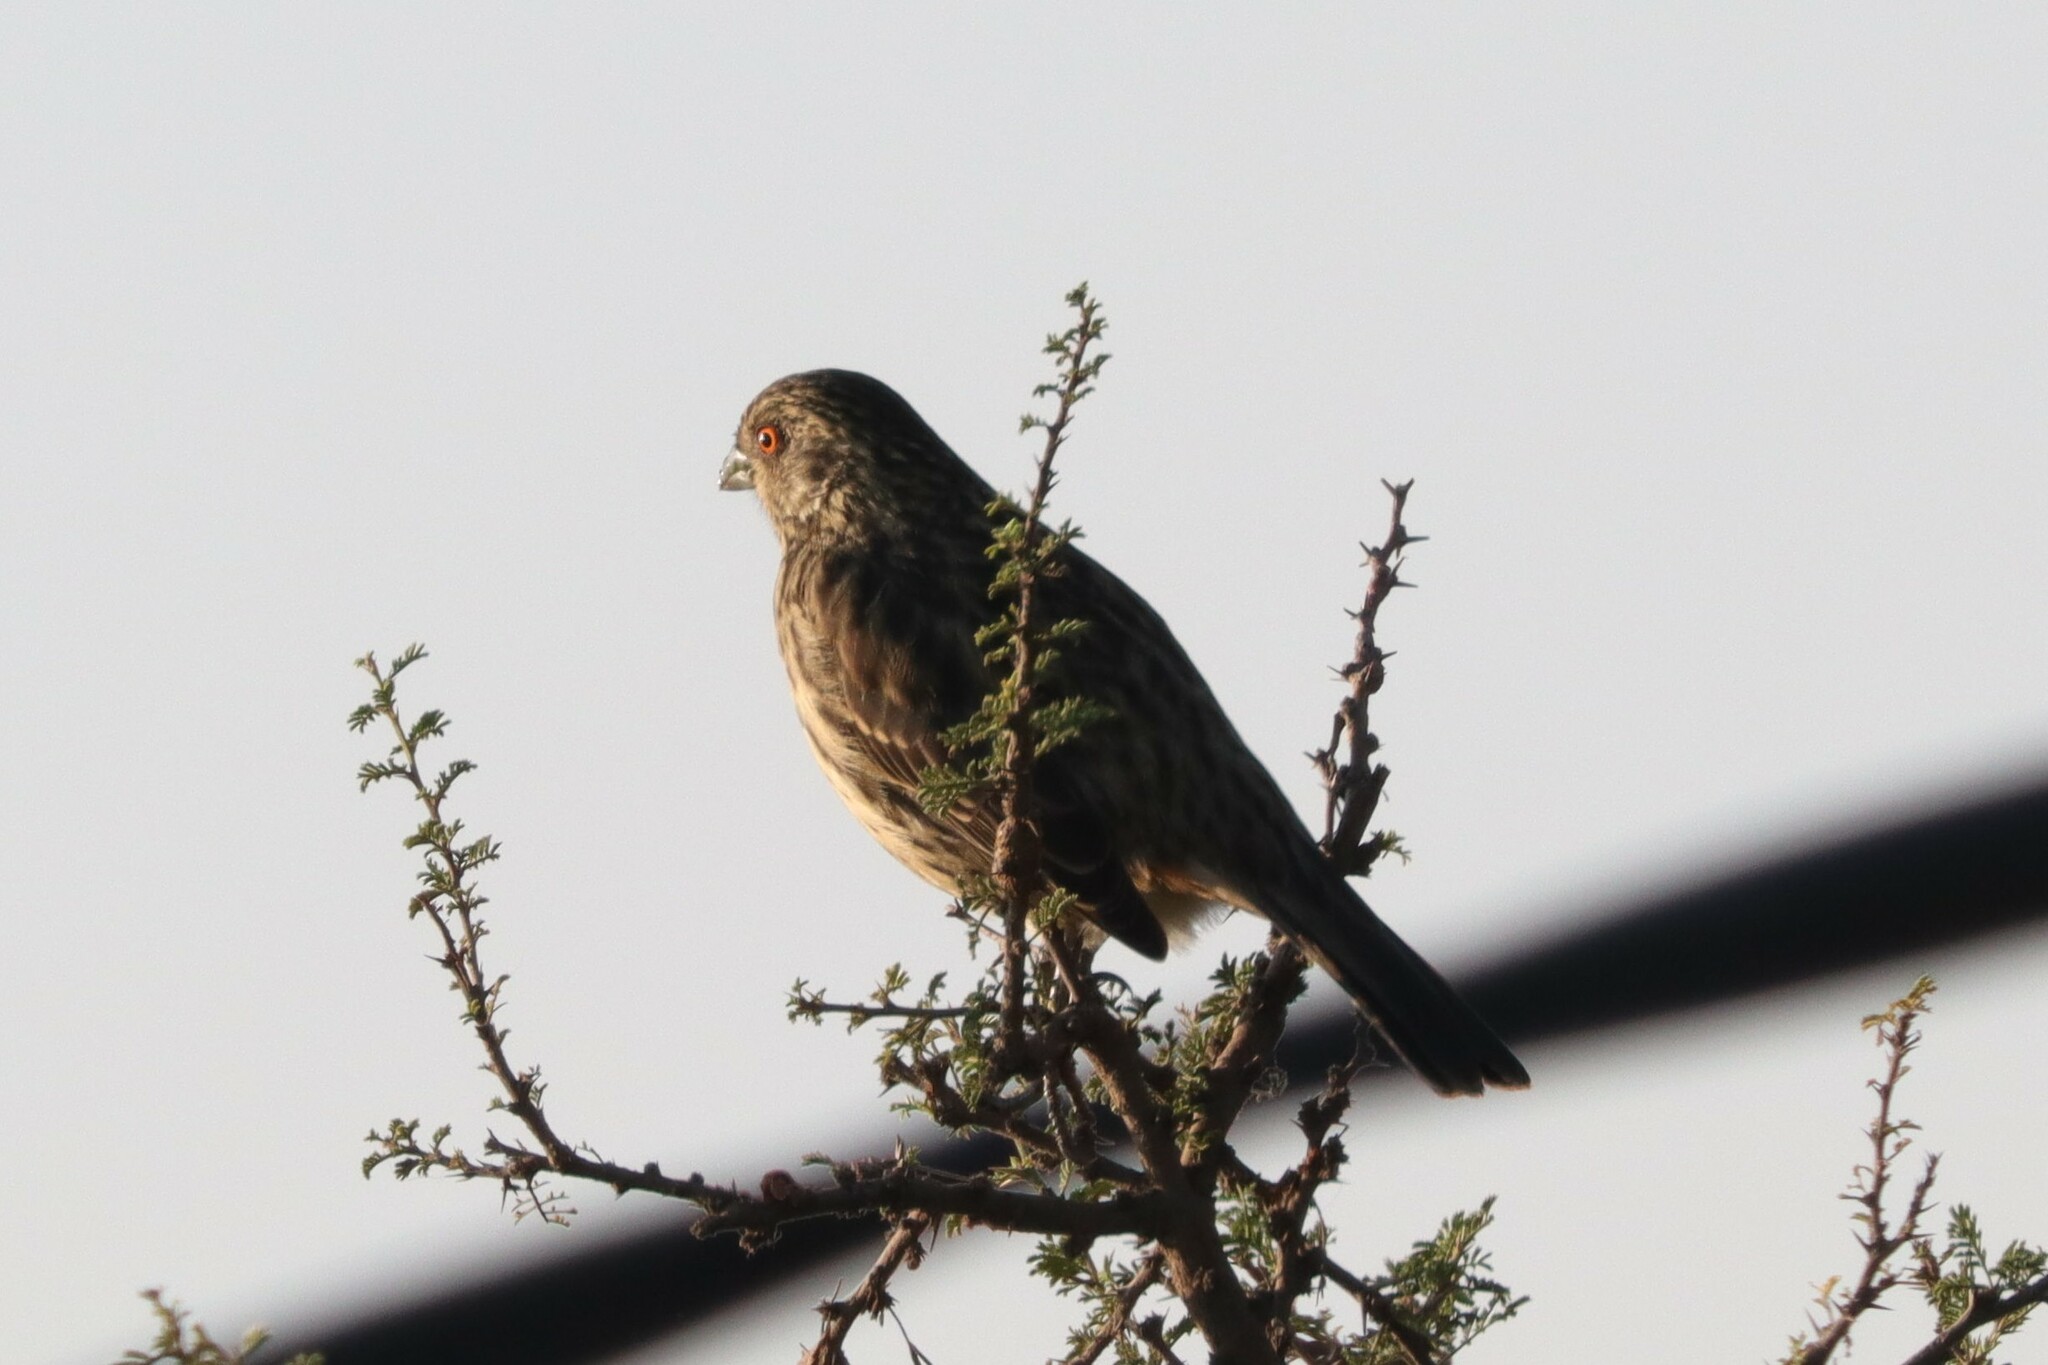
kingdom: Animalia
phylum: Chordata
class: Aves
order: Passeriformes
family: Cotingidae
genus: Phytotoma
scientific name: Phytotoma rara
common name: Rufous-tailed plantcutter
